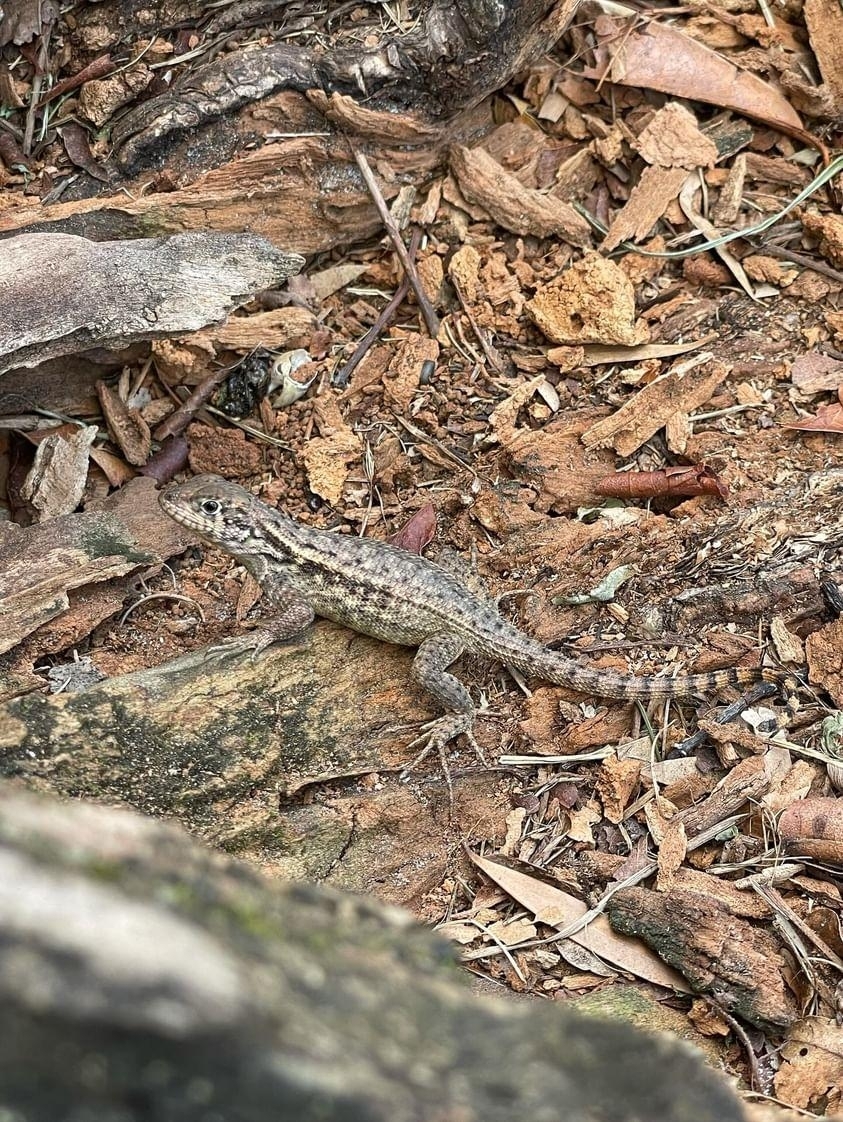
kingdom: Animalia
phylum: Chordata
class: Squamata
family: Leiocephalidae
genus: Leiocephalus
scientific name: Leiocephalus carinatus
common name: Northern curly-tailed lizard
